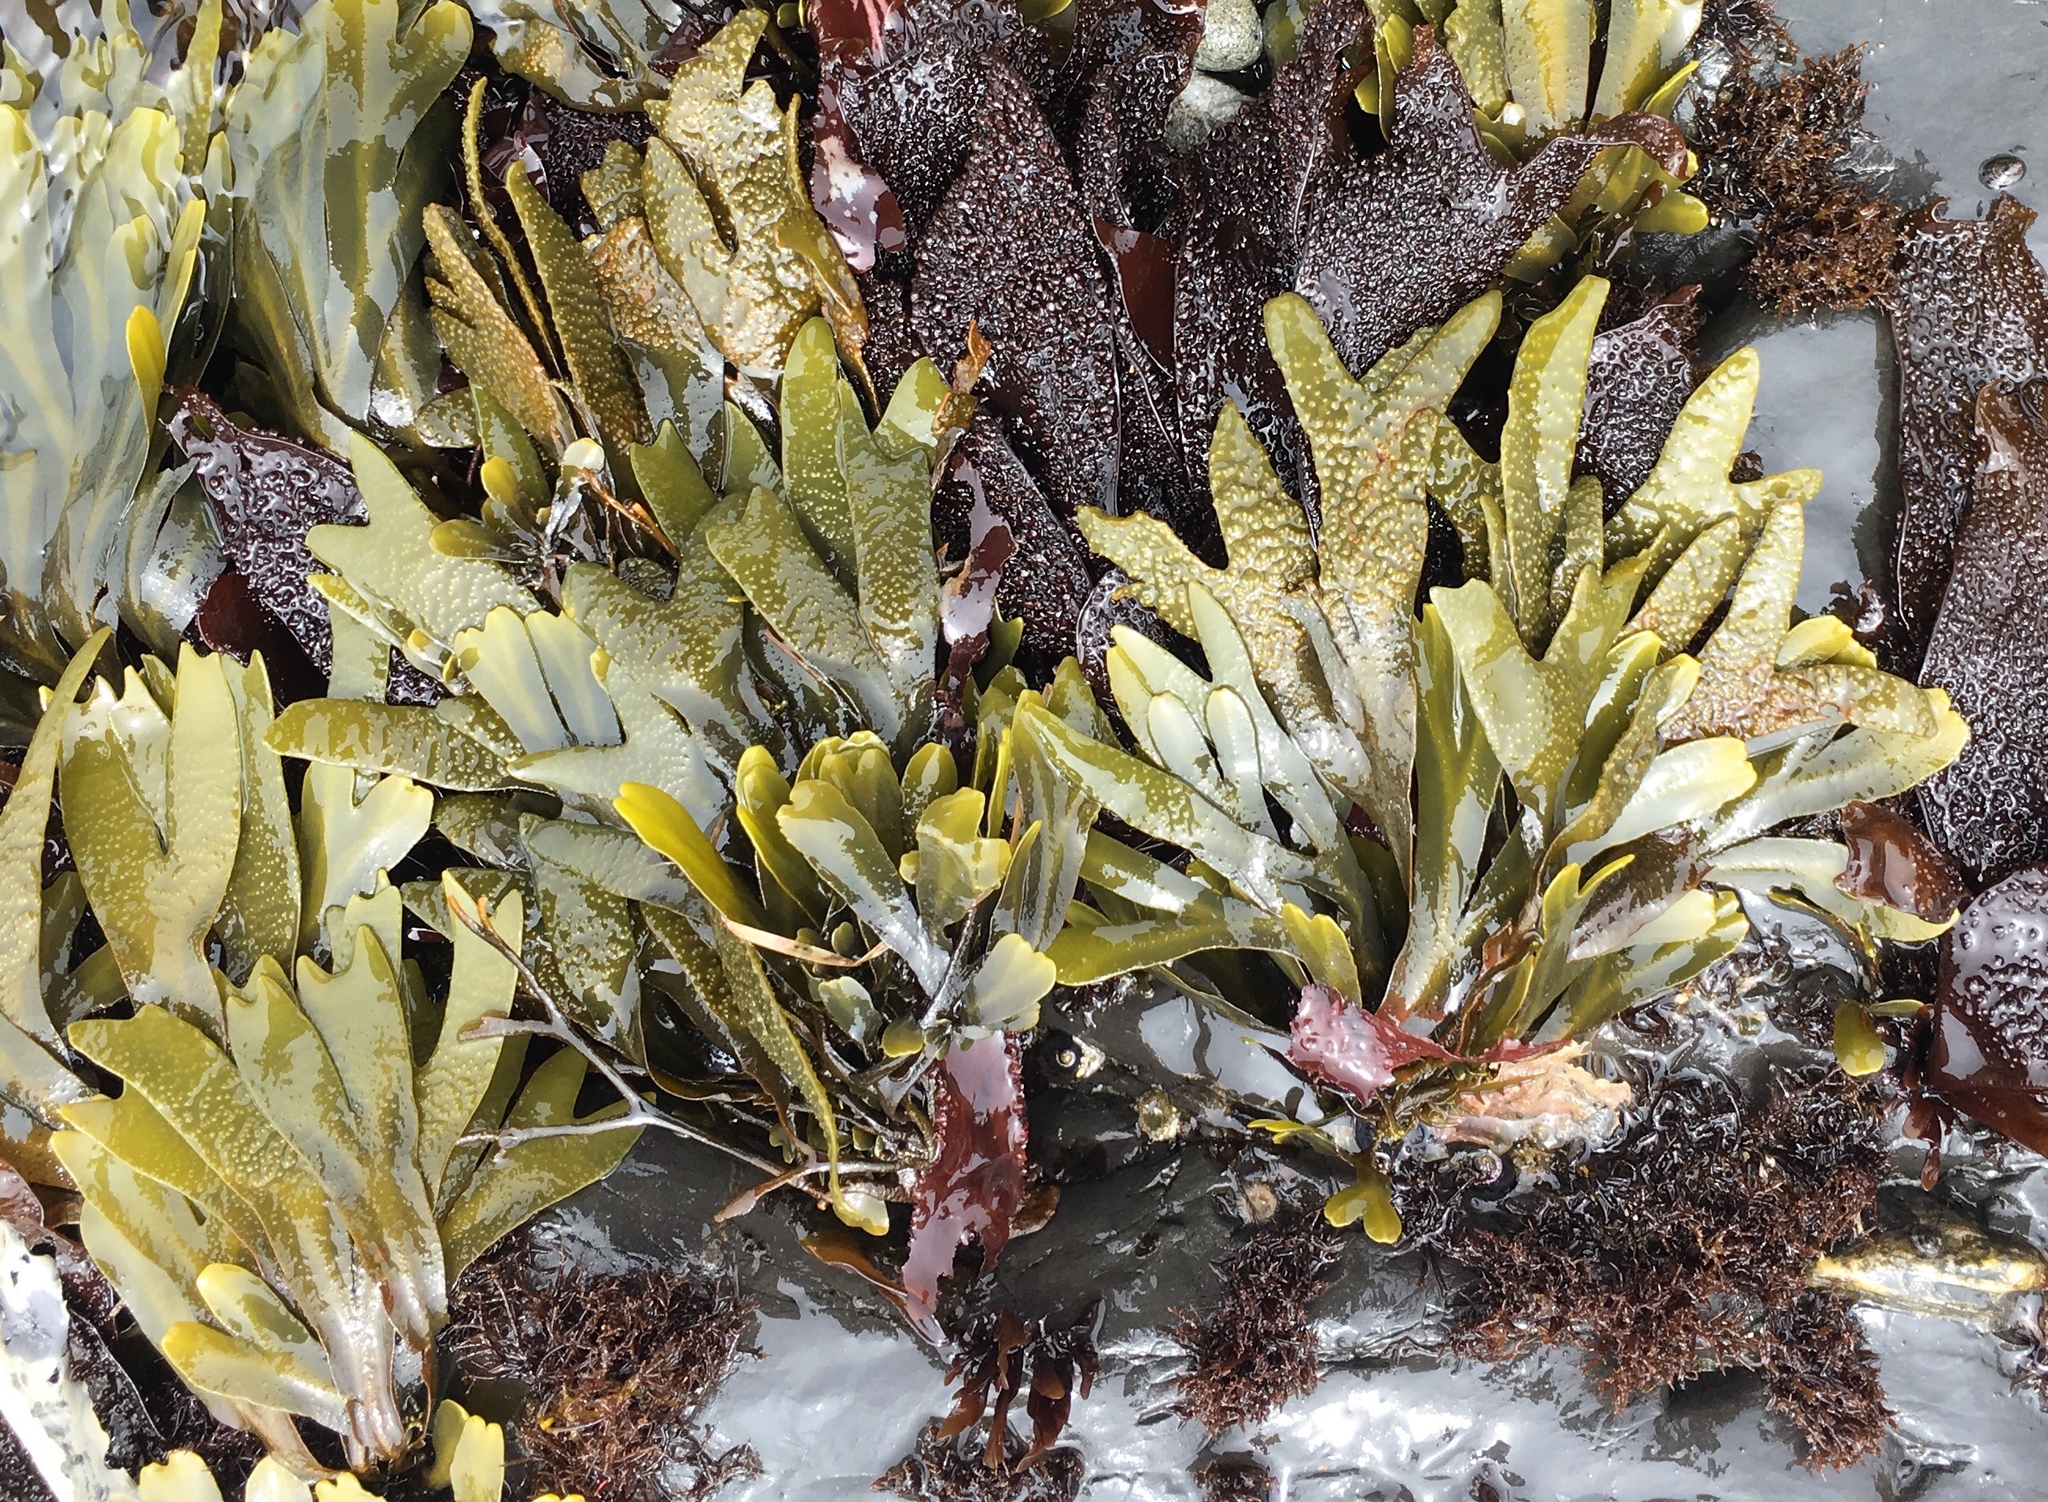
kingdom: Chromista
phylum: Ochrophyta
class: Phaeophyceae
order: Fucales
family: Fucaceae
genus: Fucus
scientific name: Fucus distichus
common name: Rockweed
